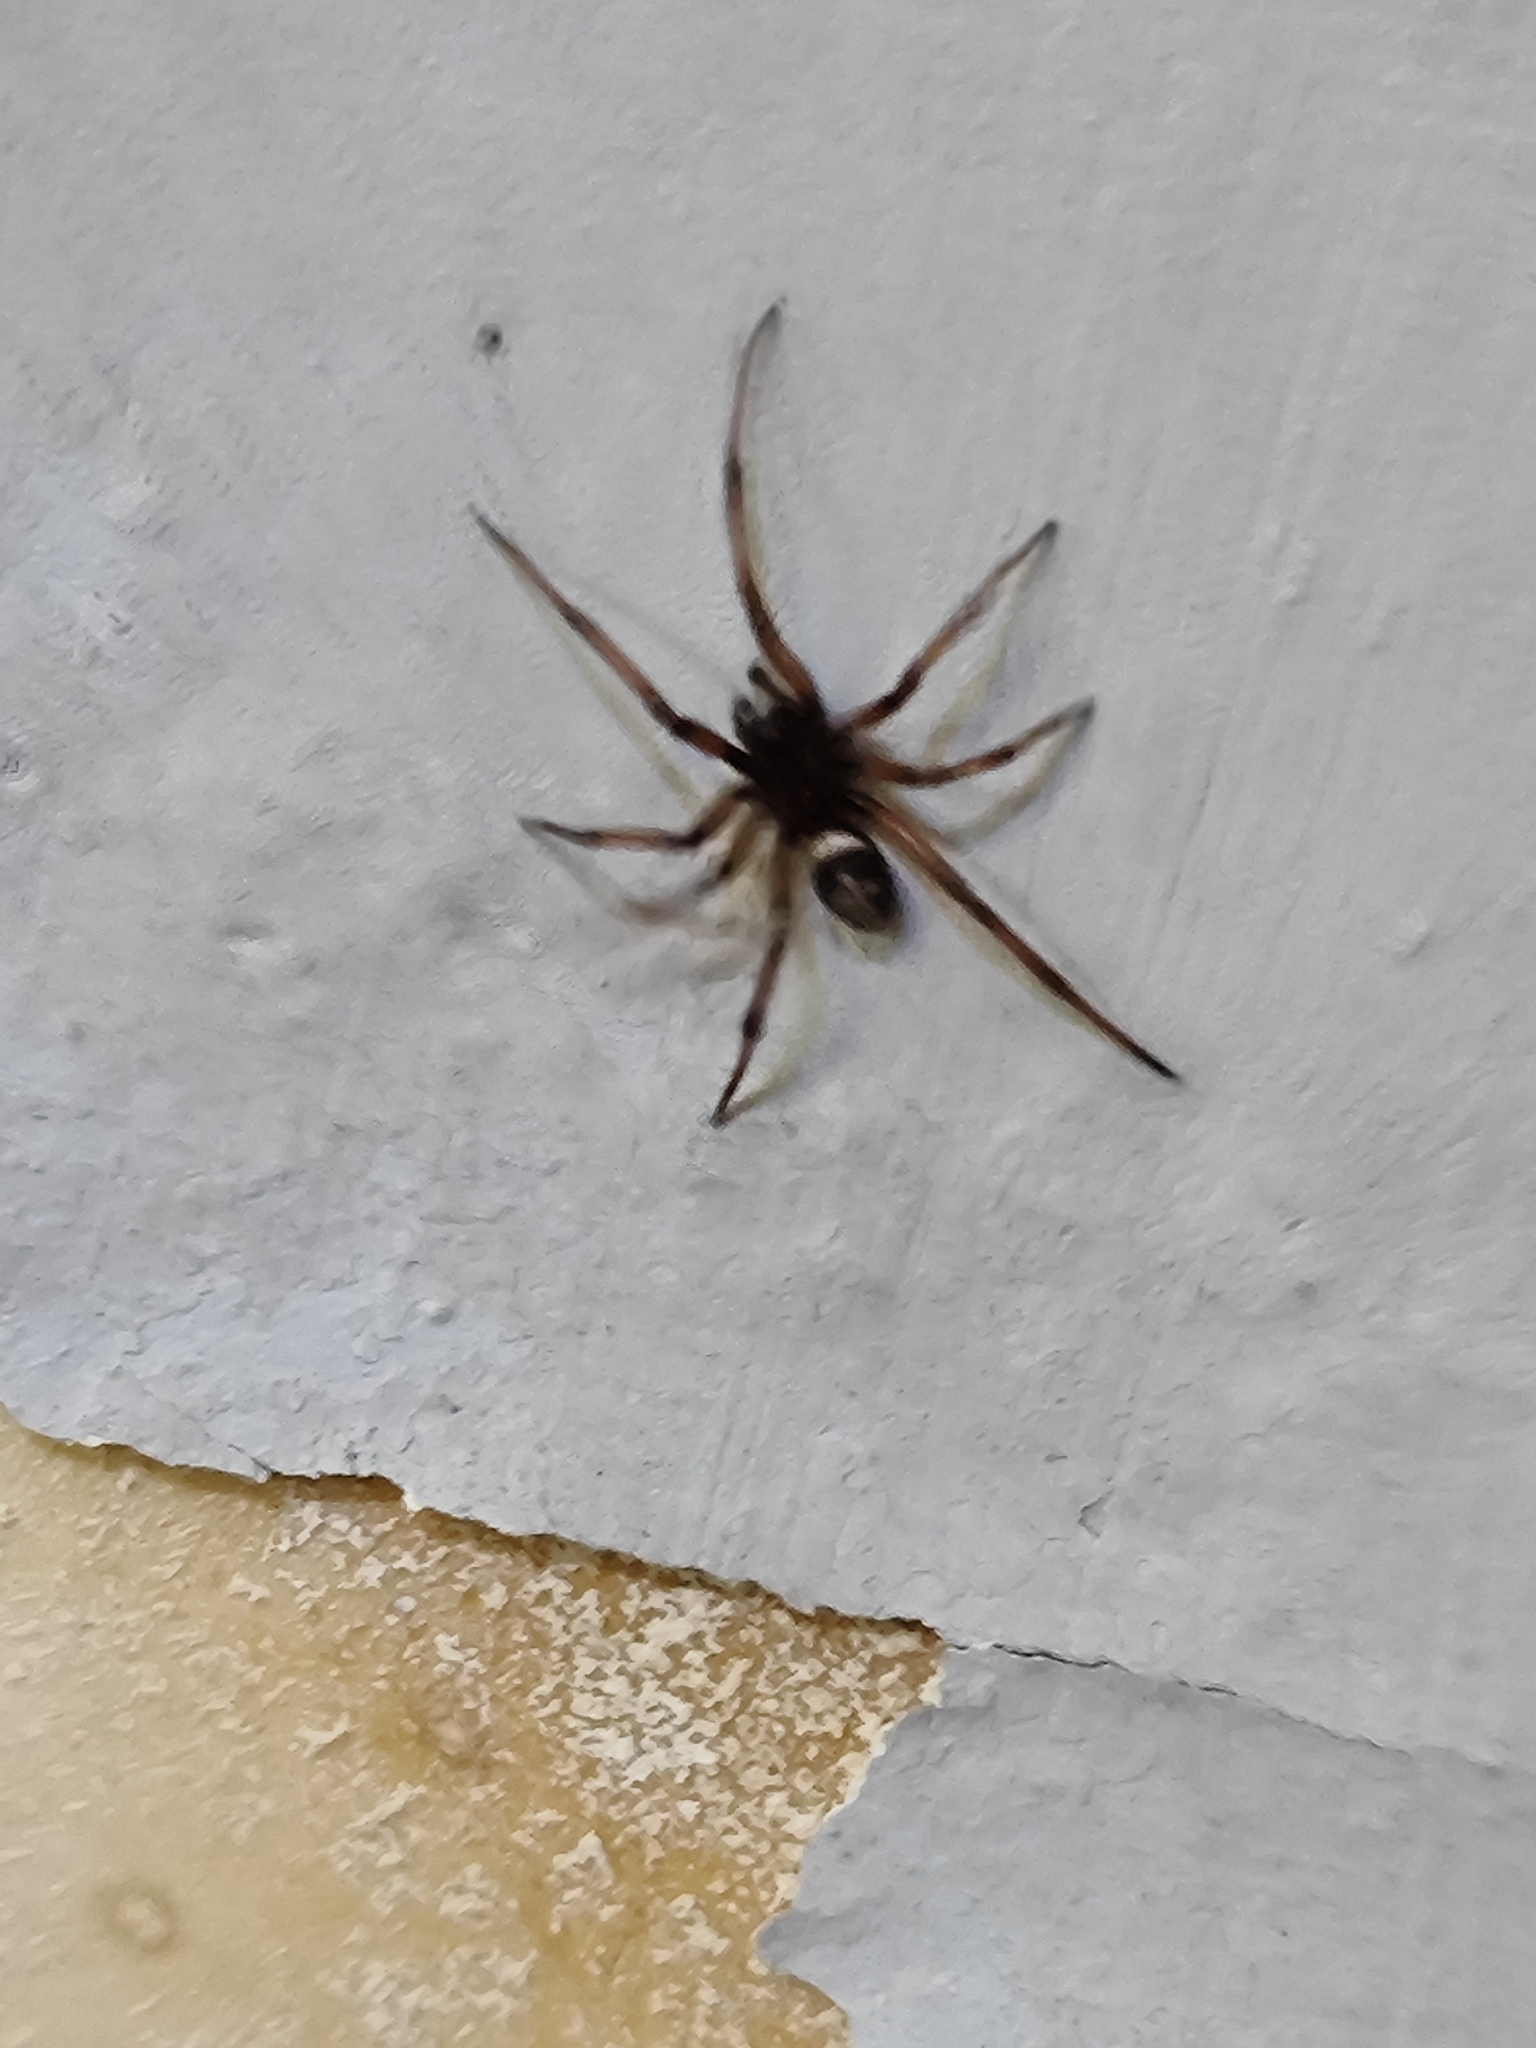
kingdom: Animalia
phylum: Arthropoda
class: Arachnida
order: Araneae
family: Theridiidae
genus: Steatoda
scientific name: Steatoda paykulliana
